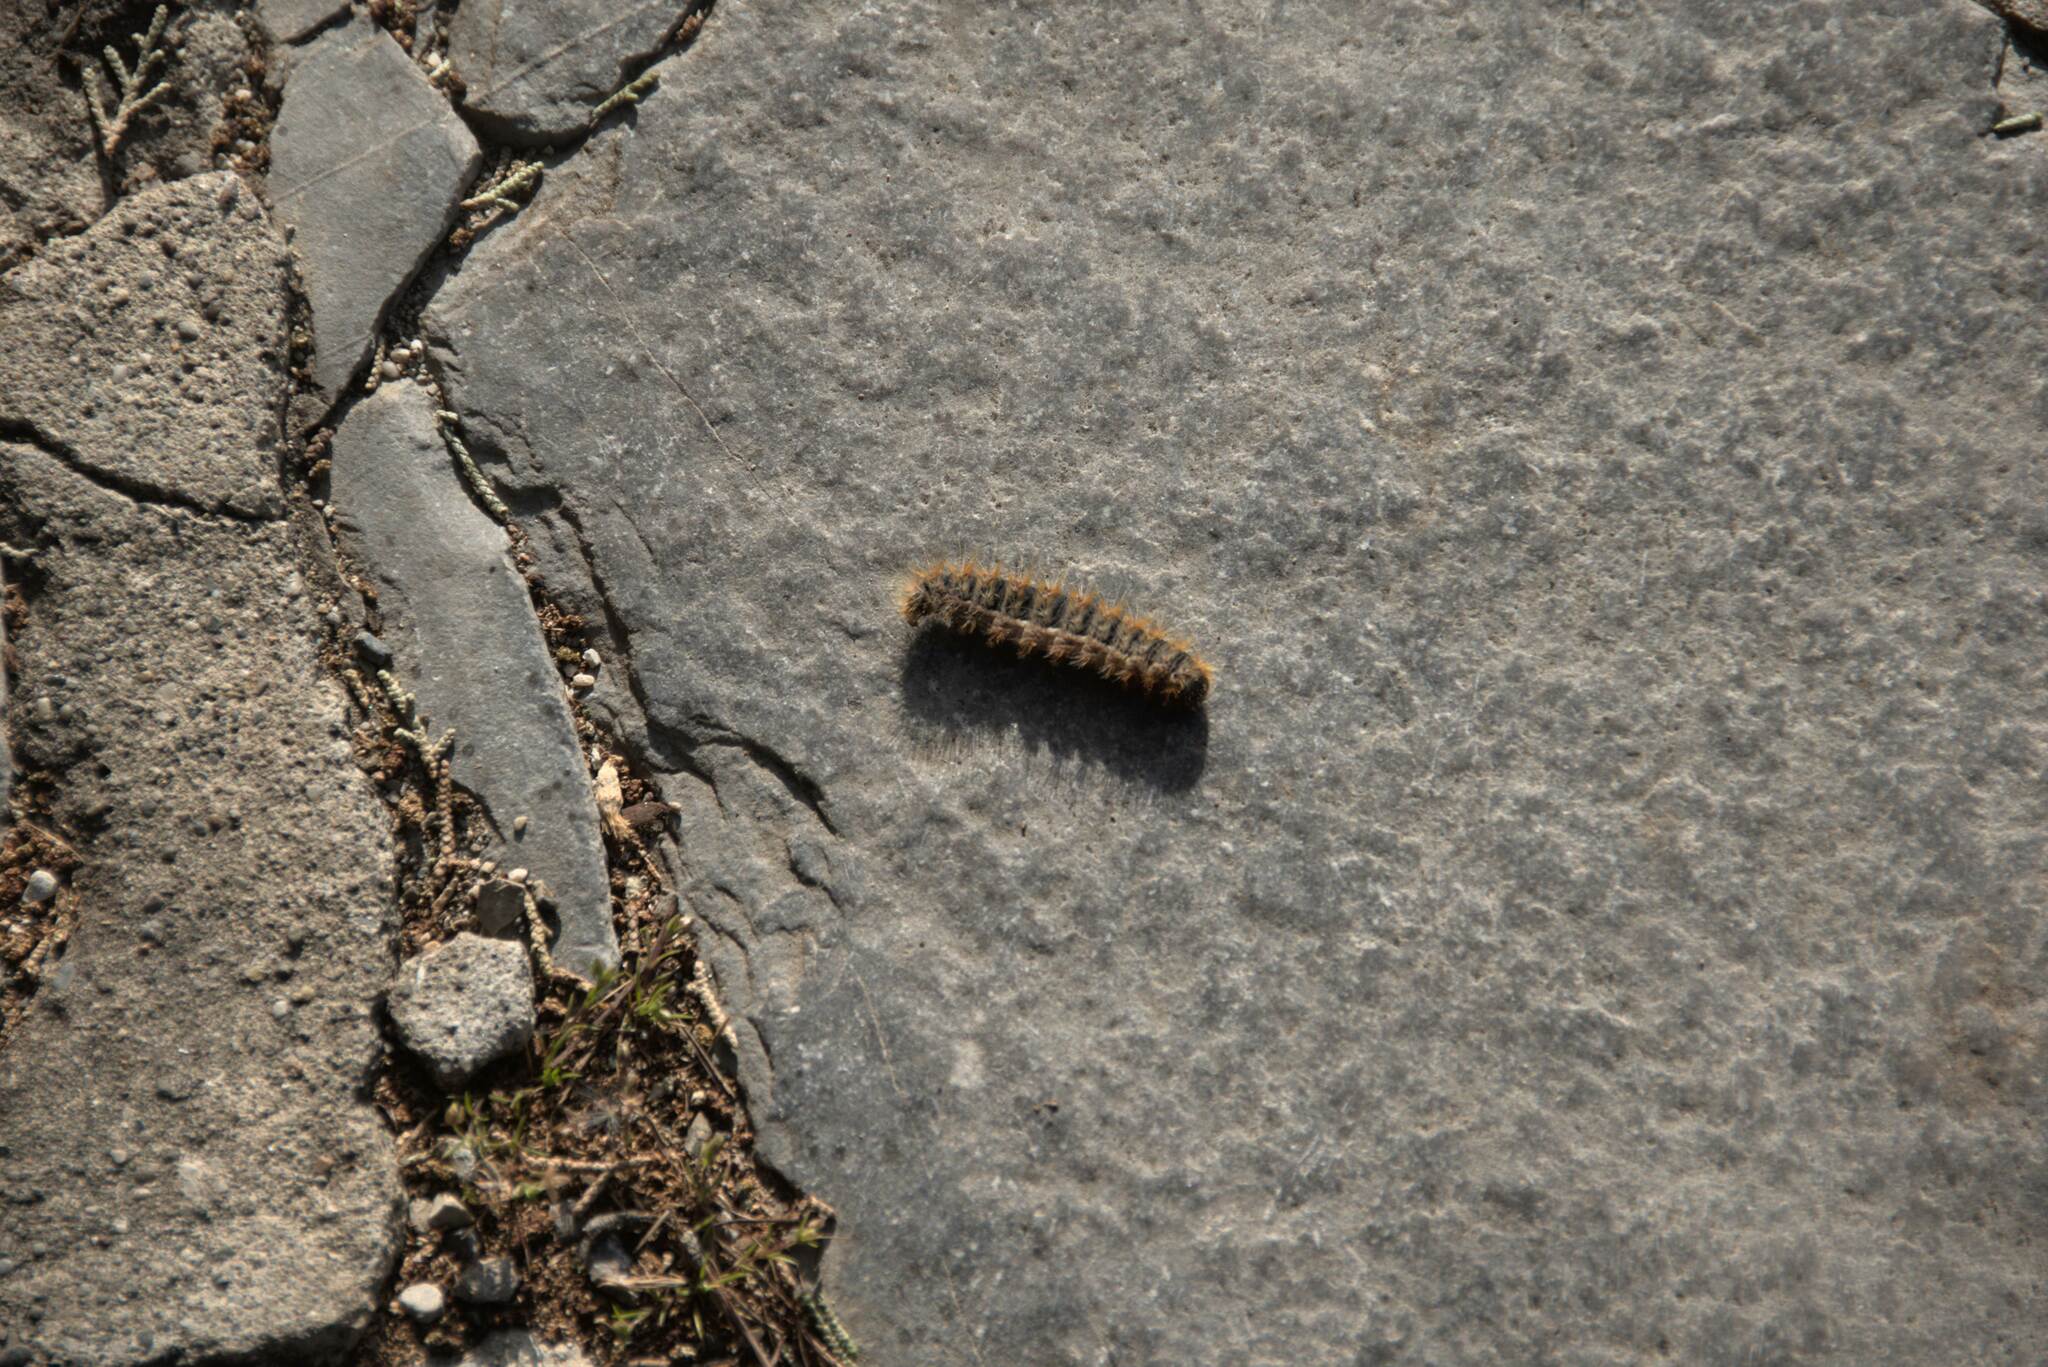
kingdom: Animalia
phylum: Arthropoda
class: Insecta
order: Lepidoptera
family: Notodontidae
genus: Thaumetopoea
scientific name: Thaumetopoea
